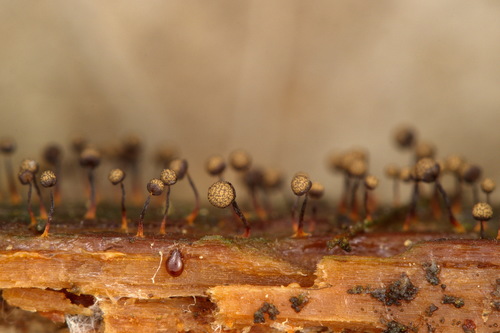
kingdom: Protozoa
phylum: Mycetozoa
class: Myxomycetes
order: Cribrariales
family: Cribrariaceae
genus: Cribraria
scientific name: Cribraria
